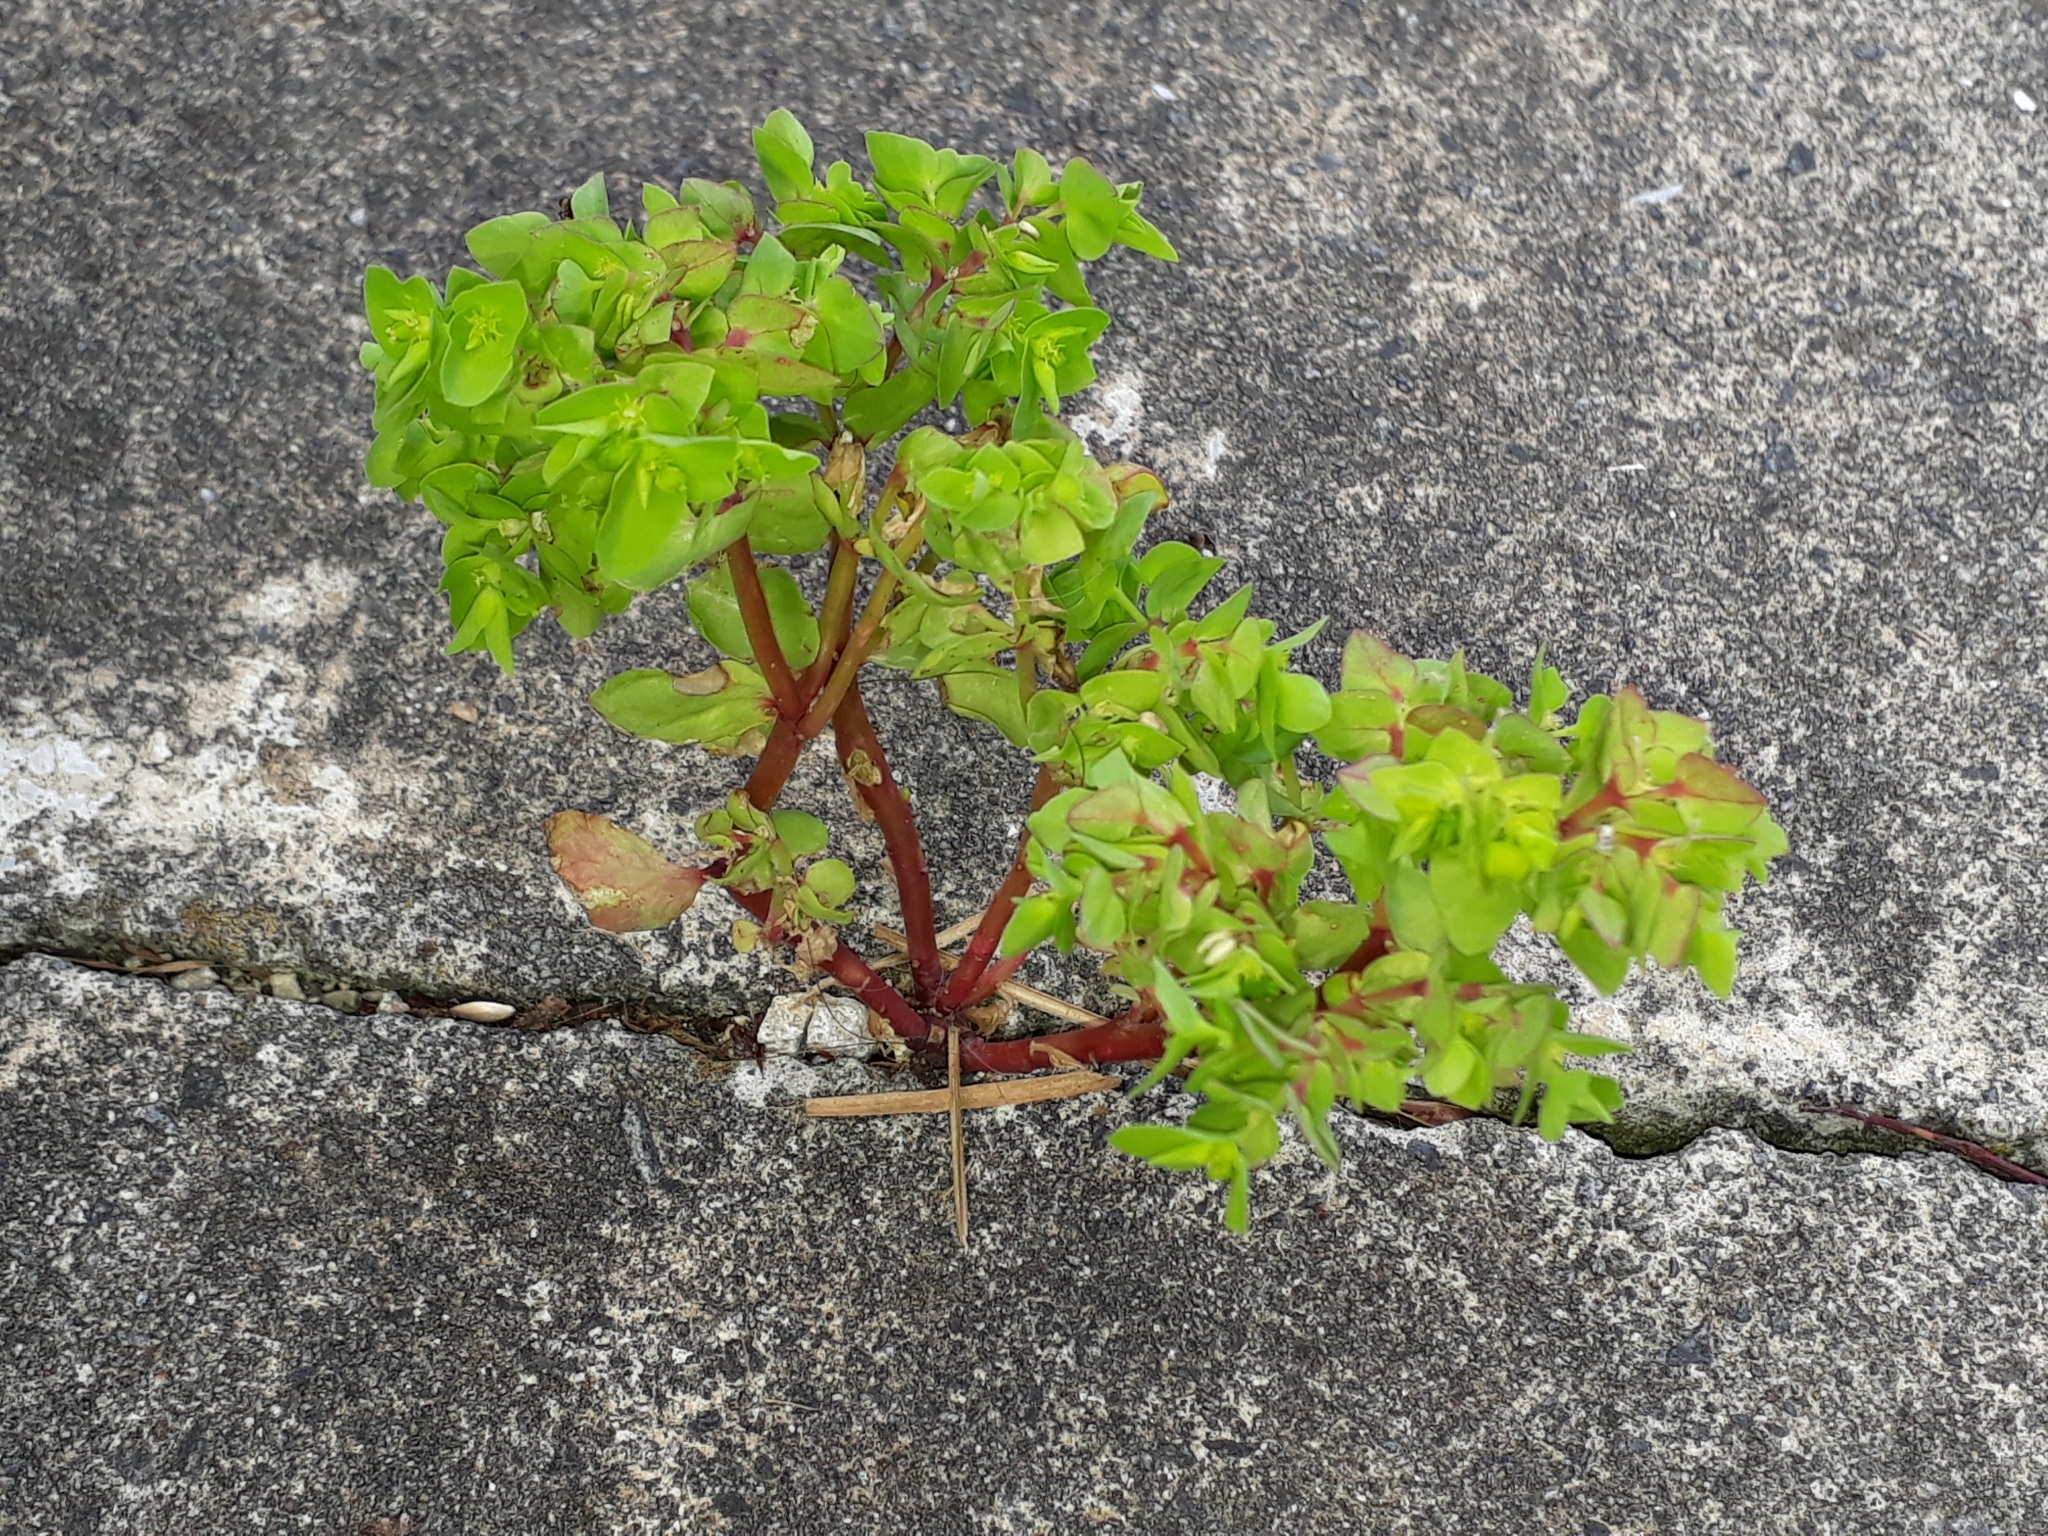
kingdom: Plantae
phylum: Tracheophyta
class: Magnoliopsida
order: Malpighiales
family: Euphorbiaceae
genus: Euphorbia
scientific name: Euphorbia peplus
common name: Petty spurge
